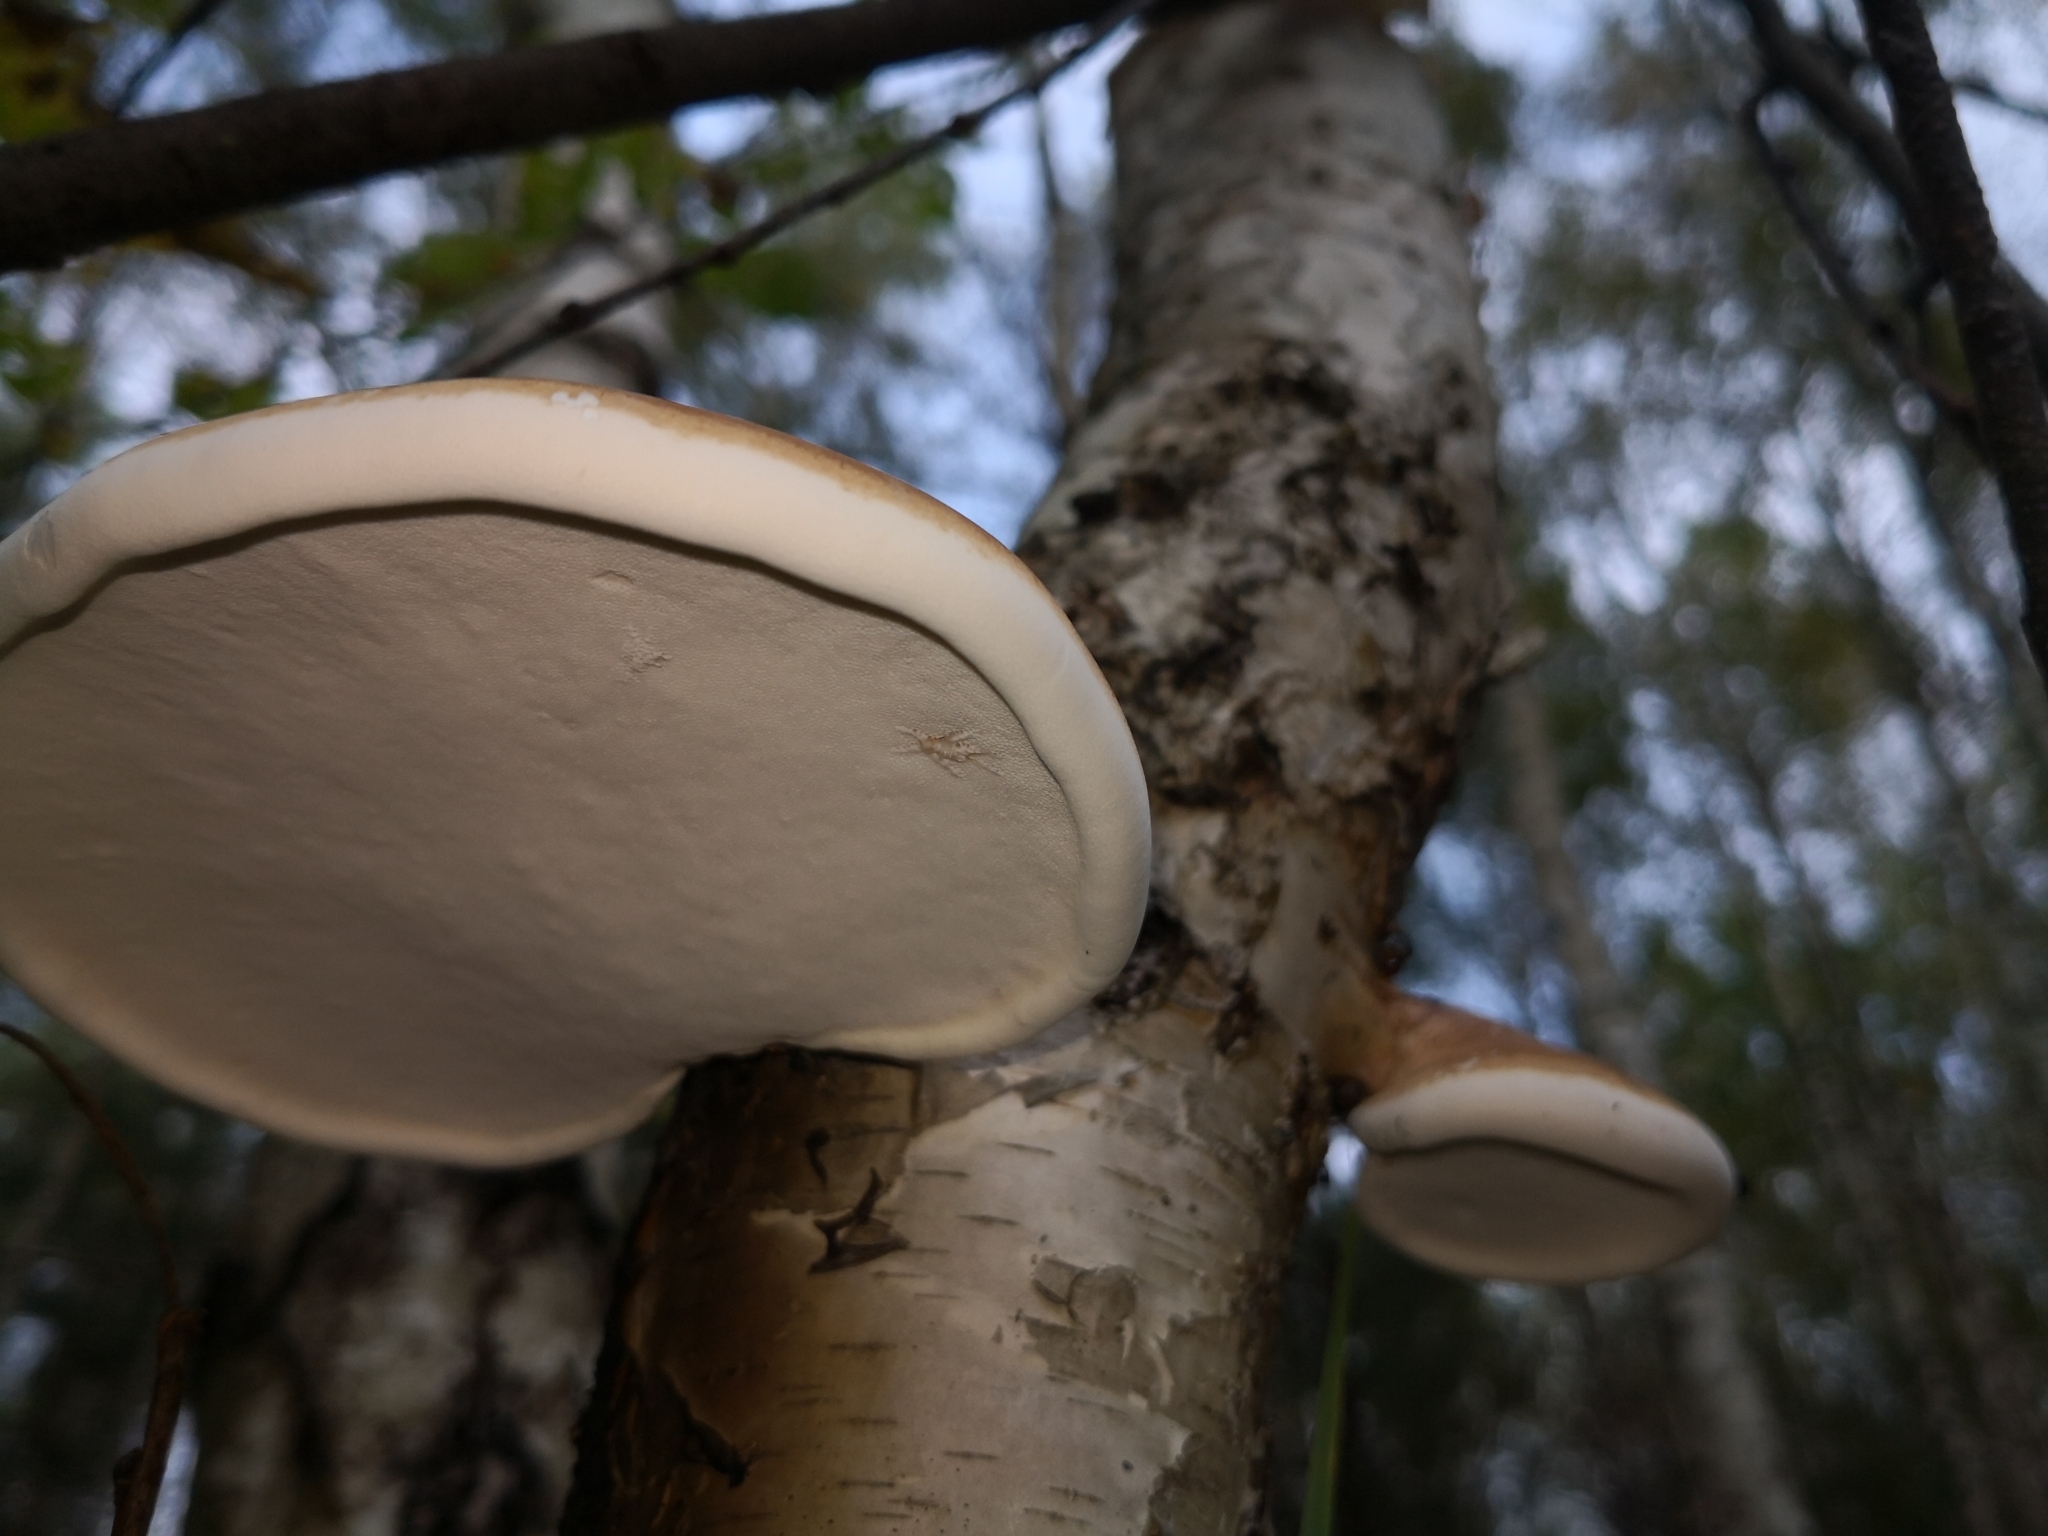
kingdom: Fungi
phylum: Basidiomycota
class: Agaricomycetes
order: Polyporales
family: Fomitopsidaceae
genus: Fomitopsis
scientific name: Fomitopsis betulina
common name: Birch polypore
